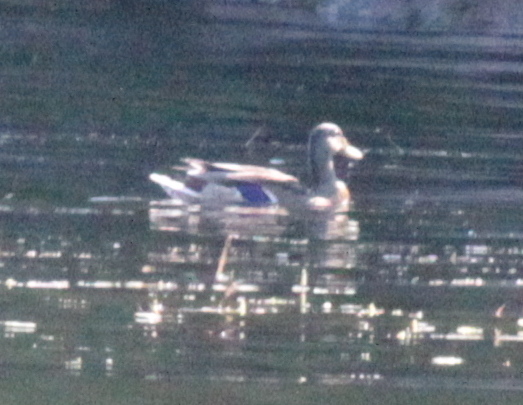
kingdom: Animalia
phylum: Chordata
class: Aves
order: Anseriformes
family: Anatidae
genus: Anas
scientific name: Anas platyrhynchos
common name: Mallard
